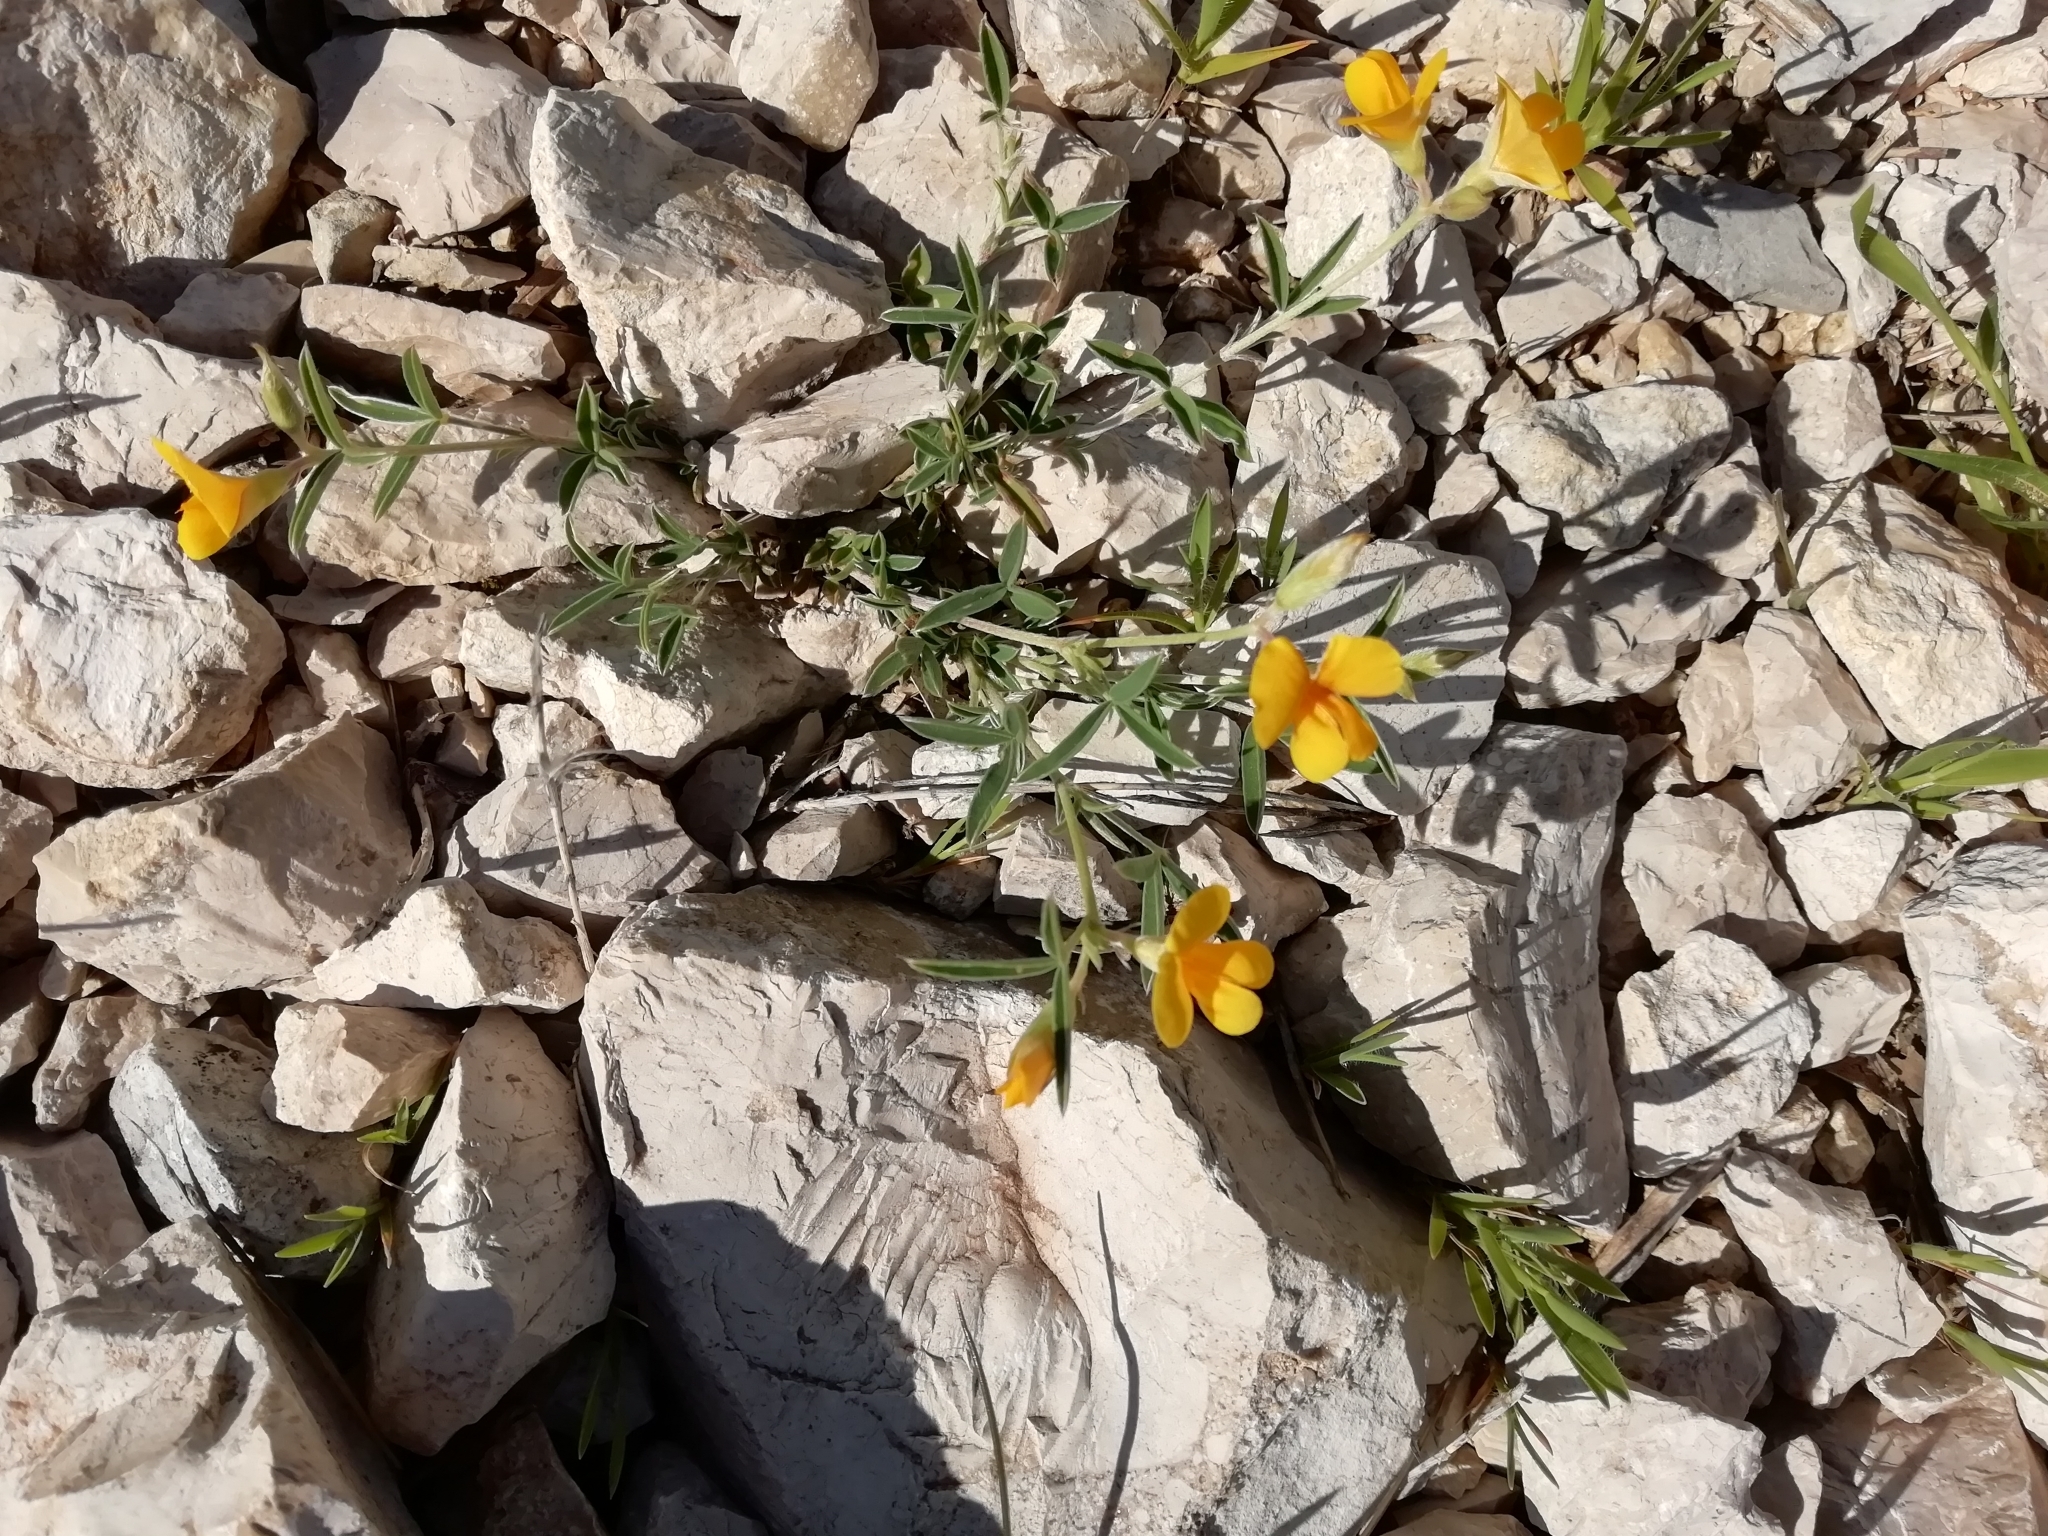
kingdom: Plantae
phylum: Tracheophyta
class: Magnoliopsida
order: Fabales
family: Fabaceae
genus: Argyrolobium
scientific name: Argyrolobium zanonii
